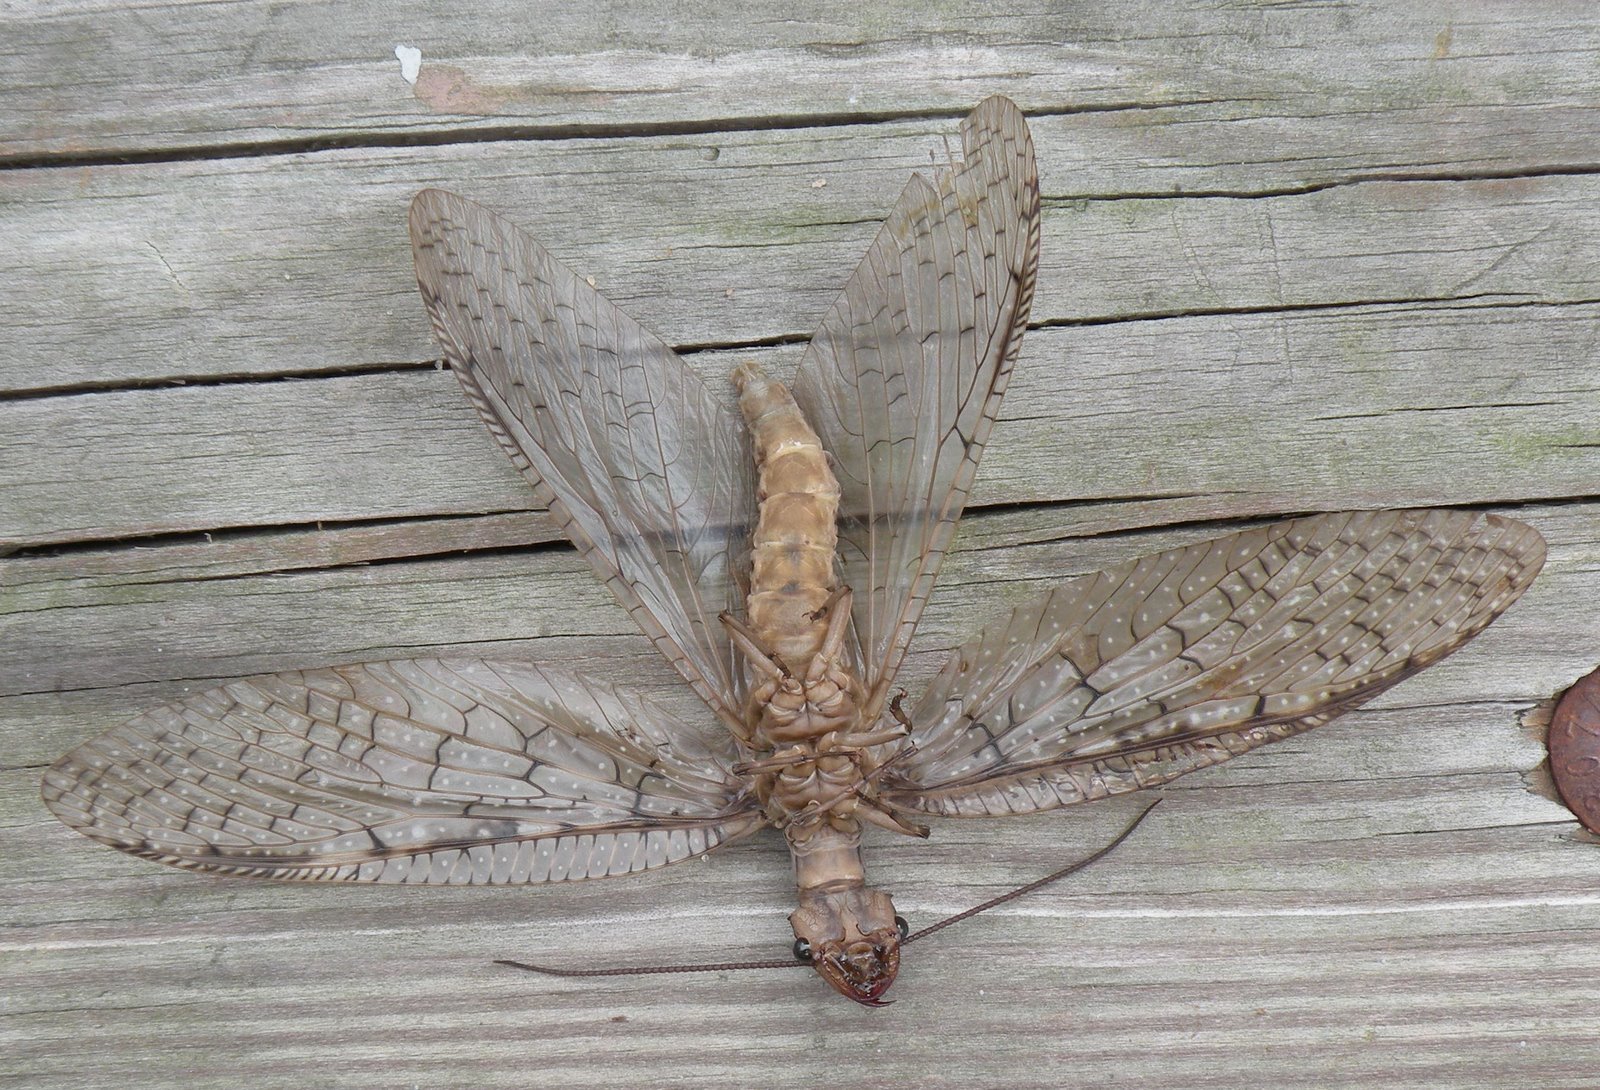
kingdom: Animalia
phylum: Arthropoda
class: Insecta
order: Megaloptera
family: Corydalidae
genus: Corydalus
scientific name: Corydalus cornutus
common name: Dobsonfly
